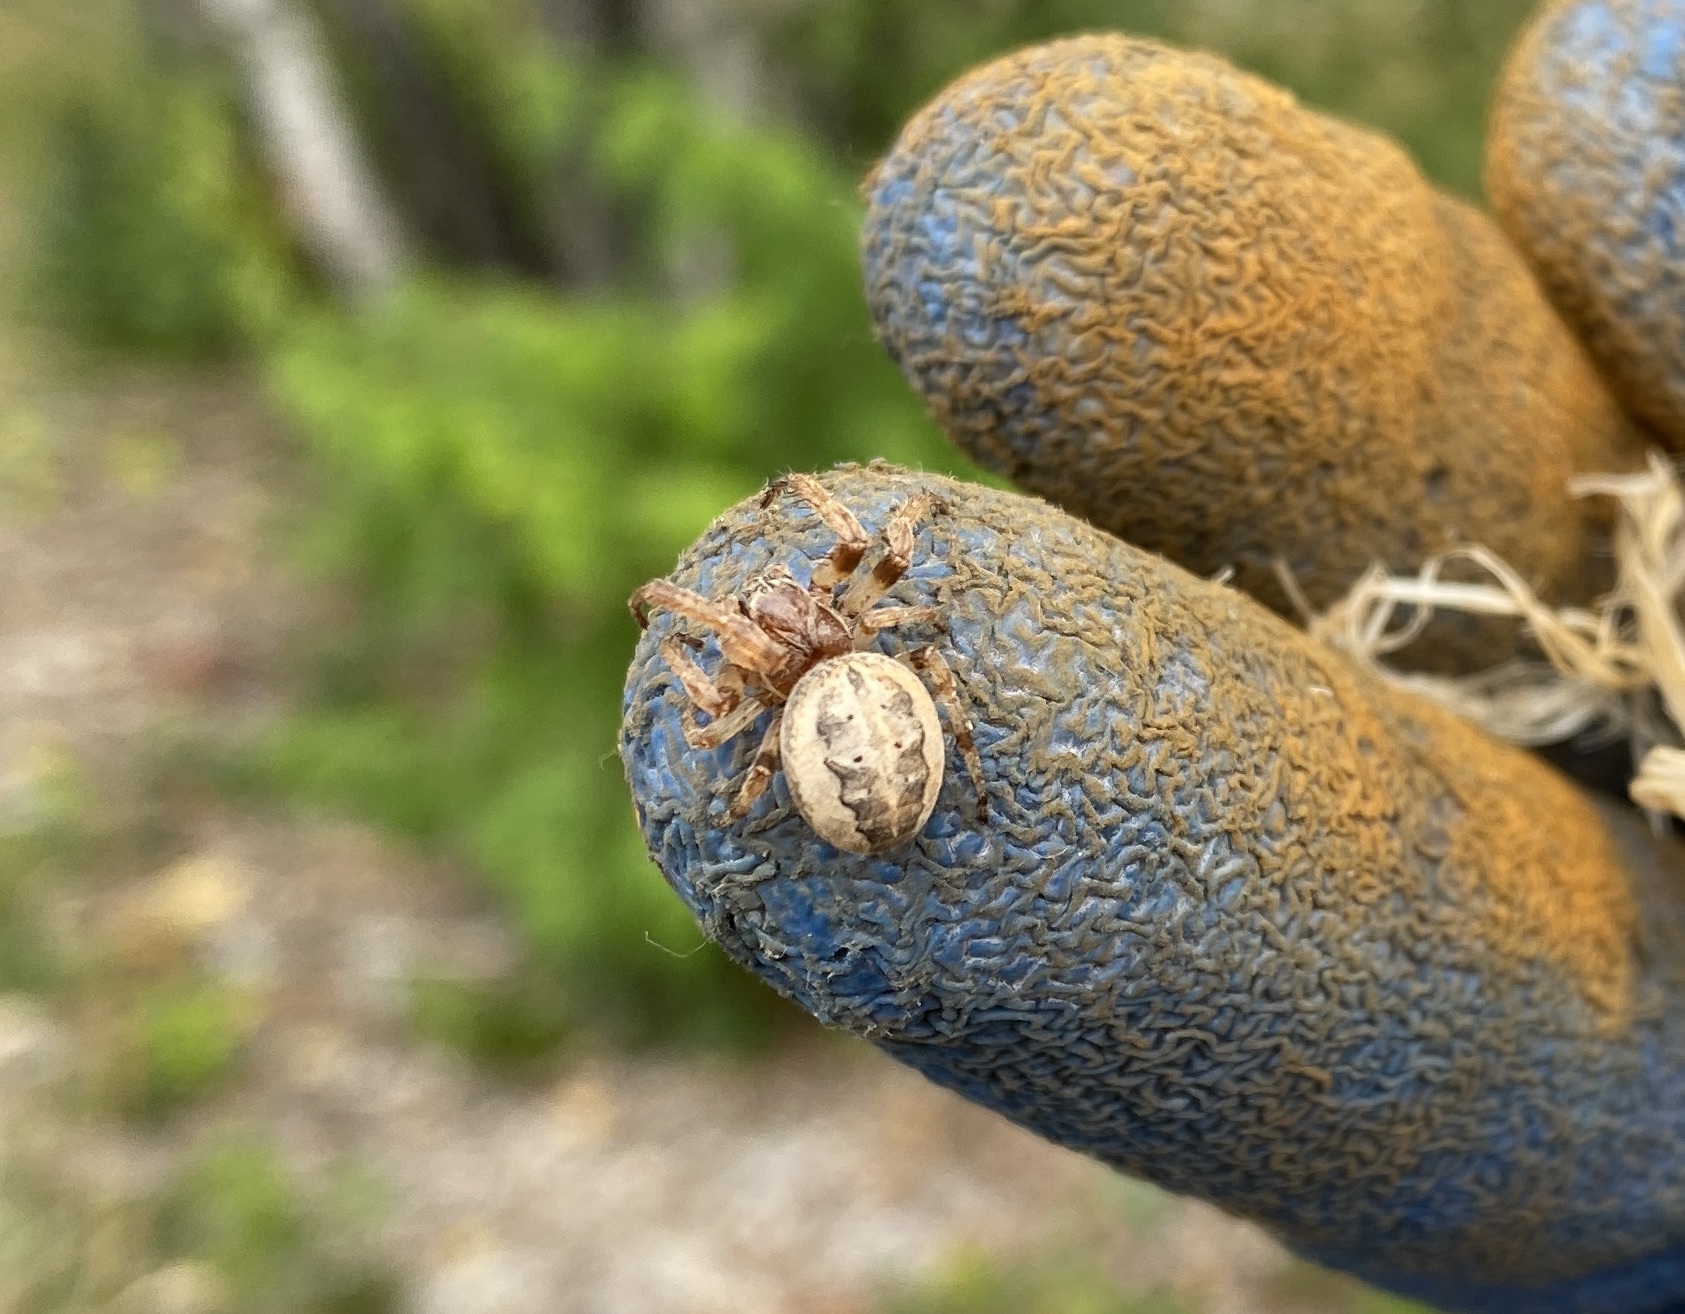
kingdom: Animalia
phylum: Arthropoda
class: Arachnida
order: Araneae
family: Araneidae
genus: Larinioides
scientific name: Larinioides cornutus
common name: Furrow orbweaver
